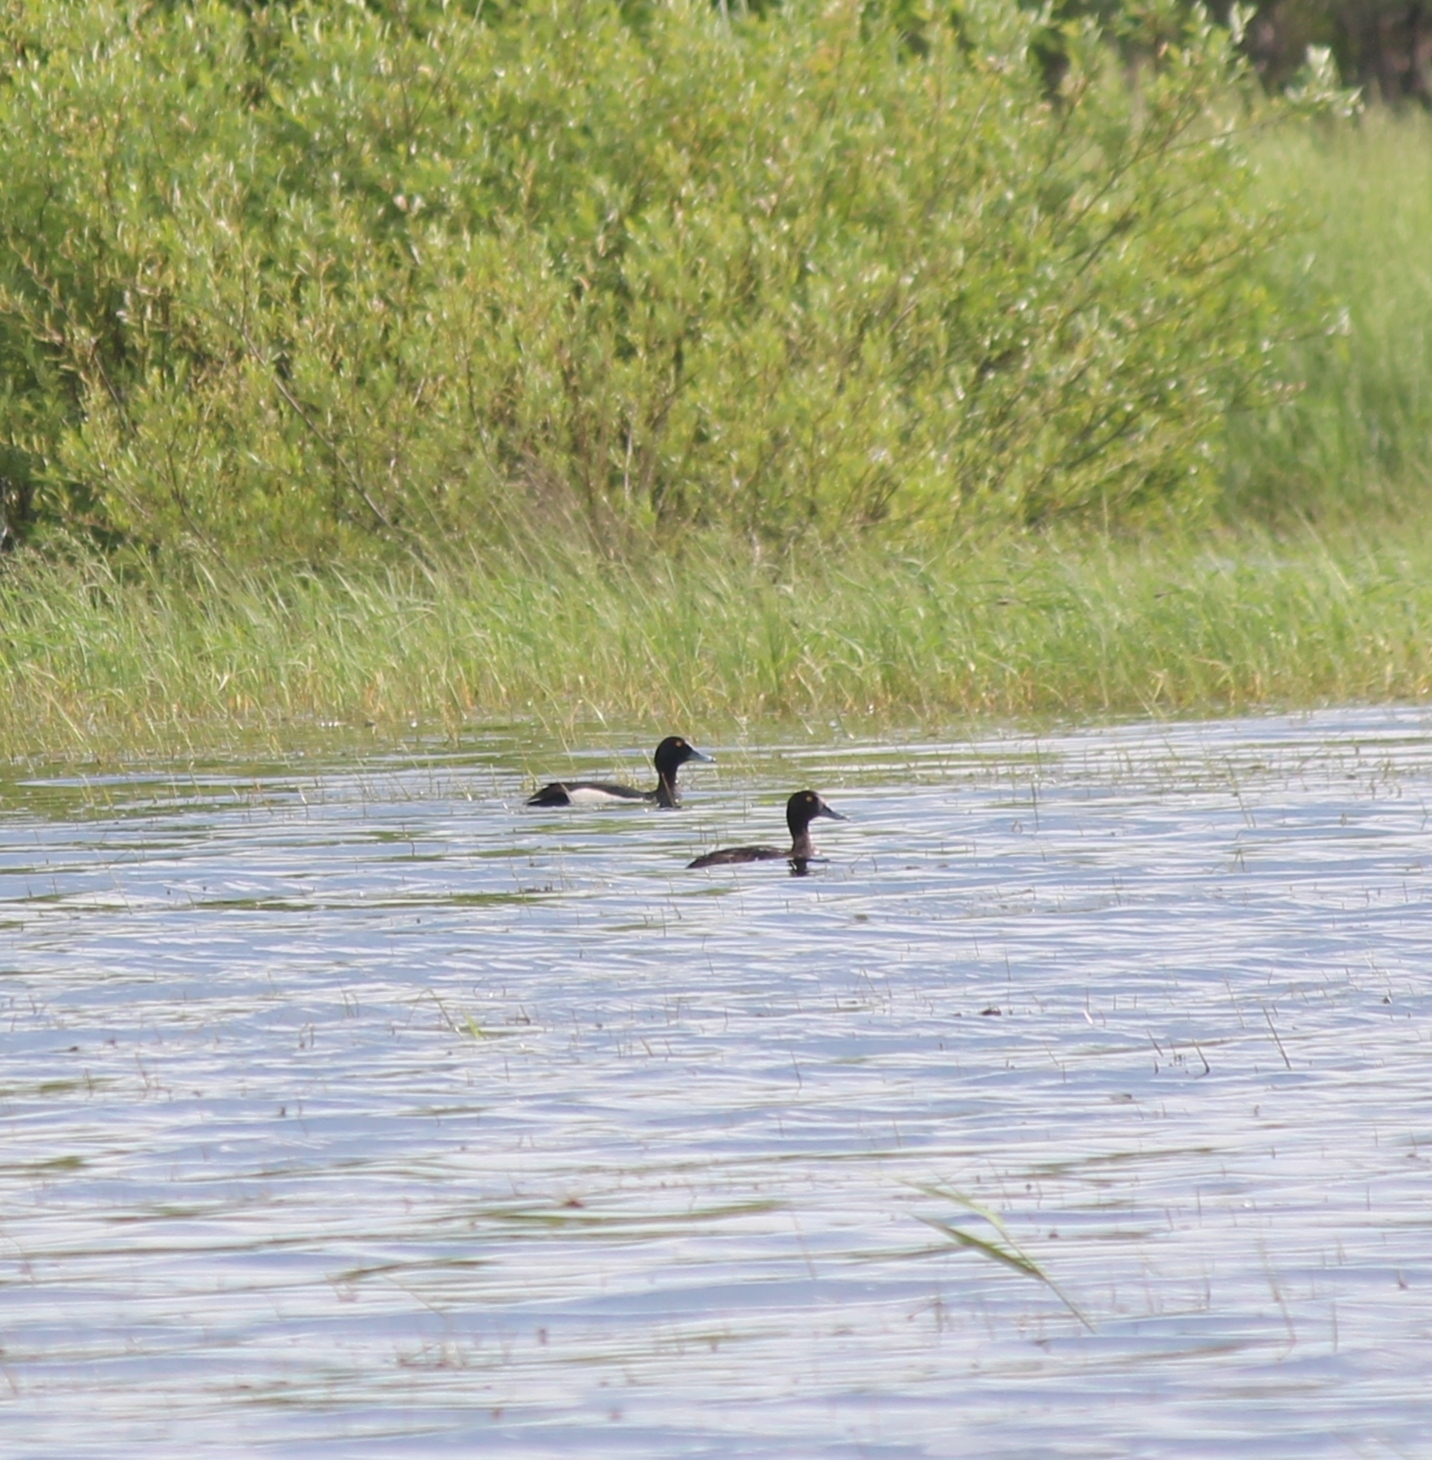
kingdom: Animalia
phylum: Chordata
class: Aves
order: Anseriformes
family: Anatidae
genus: Aythya
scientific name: Aythya fuligula
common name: Tufted duck
